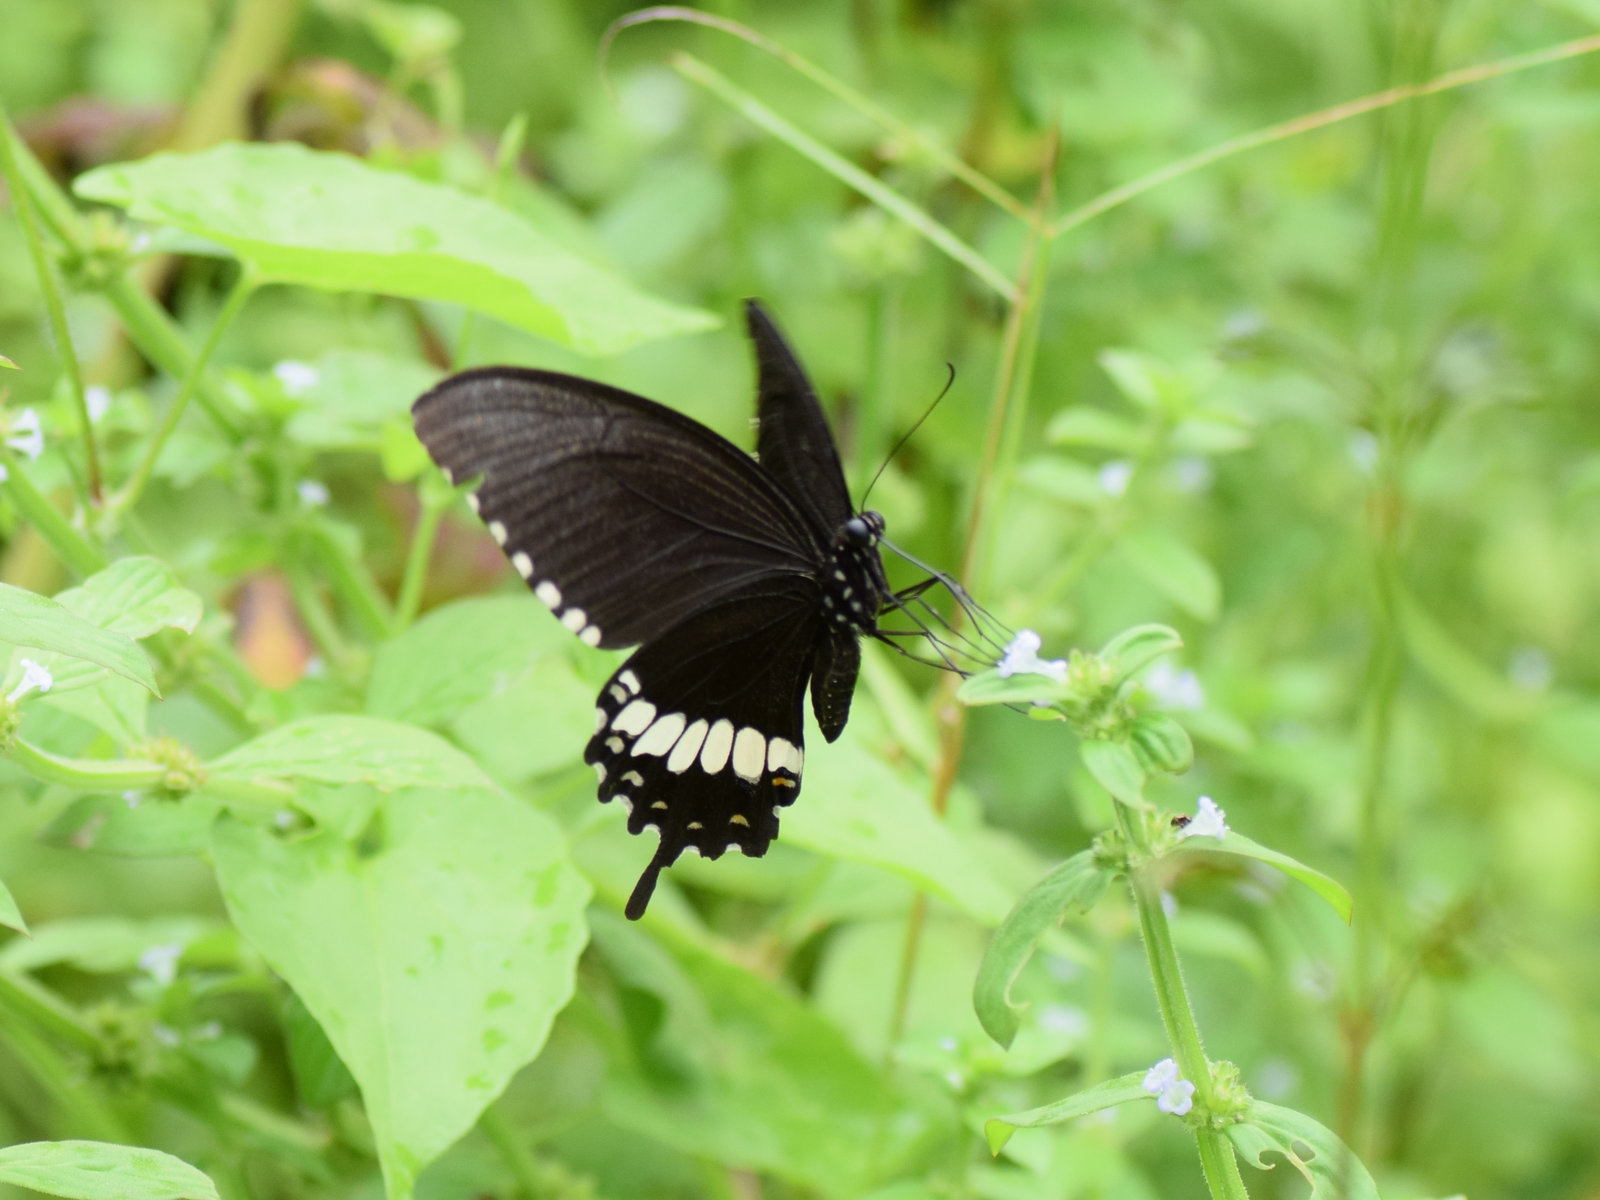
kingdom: Animalia
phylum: Arthropoda
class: Insecta
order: Lepidoptera
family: Papilionidae
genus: Papilio
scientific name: Papilio polytes
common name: Common mormon
